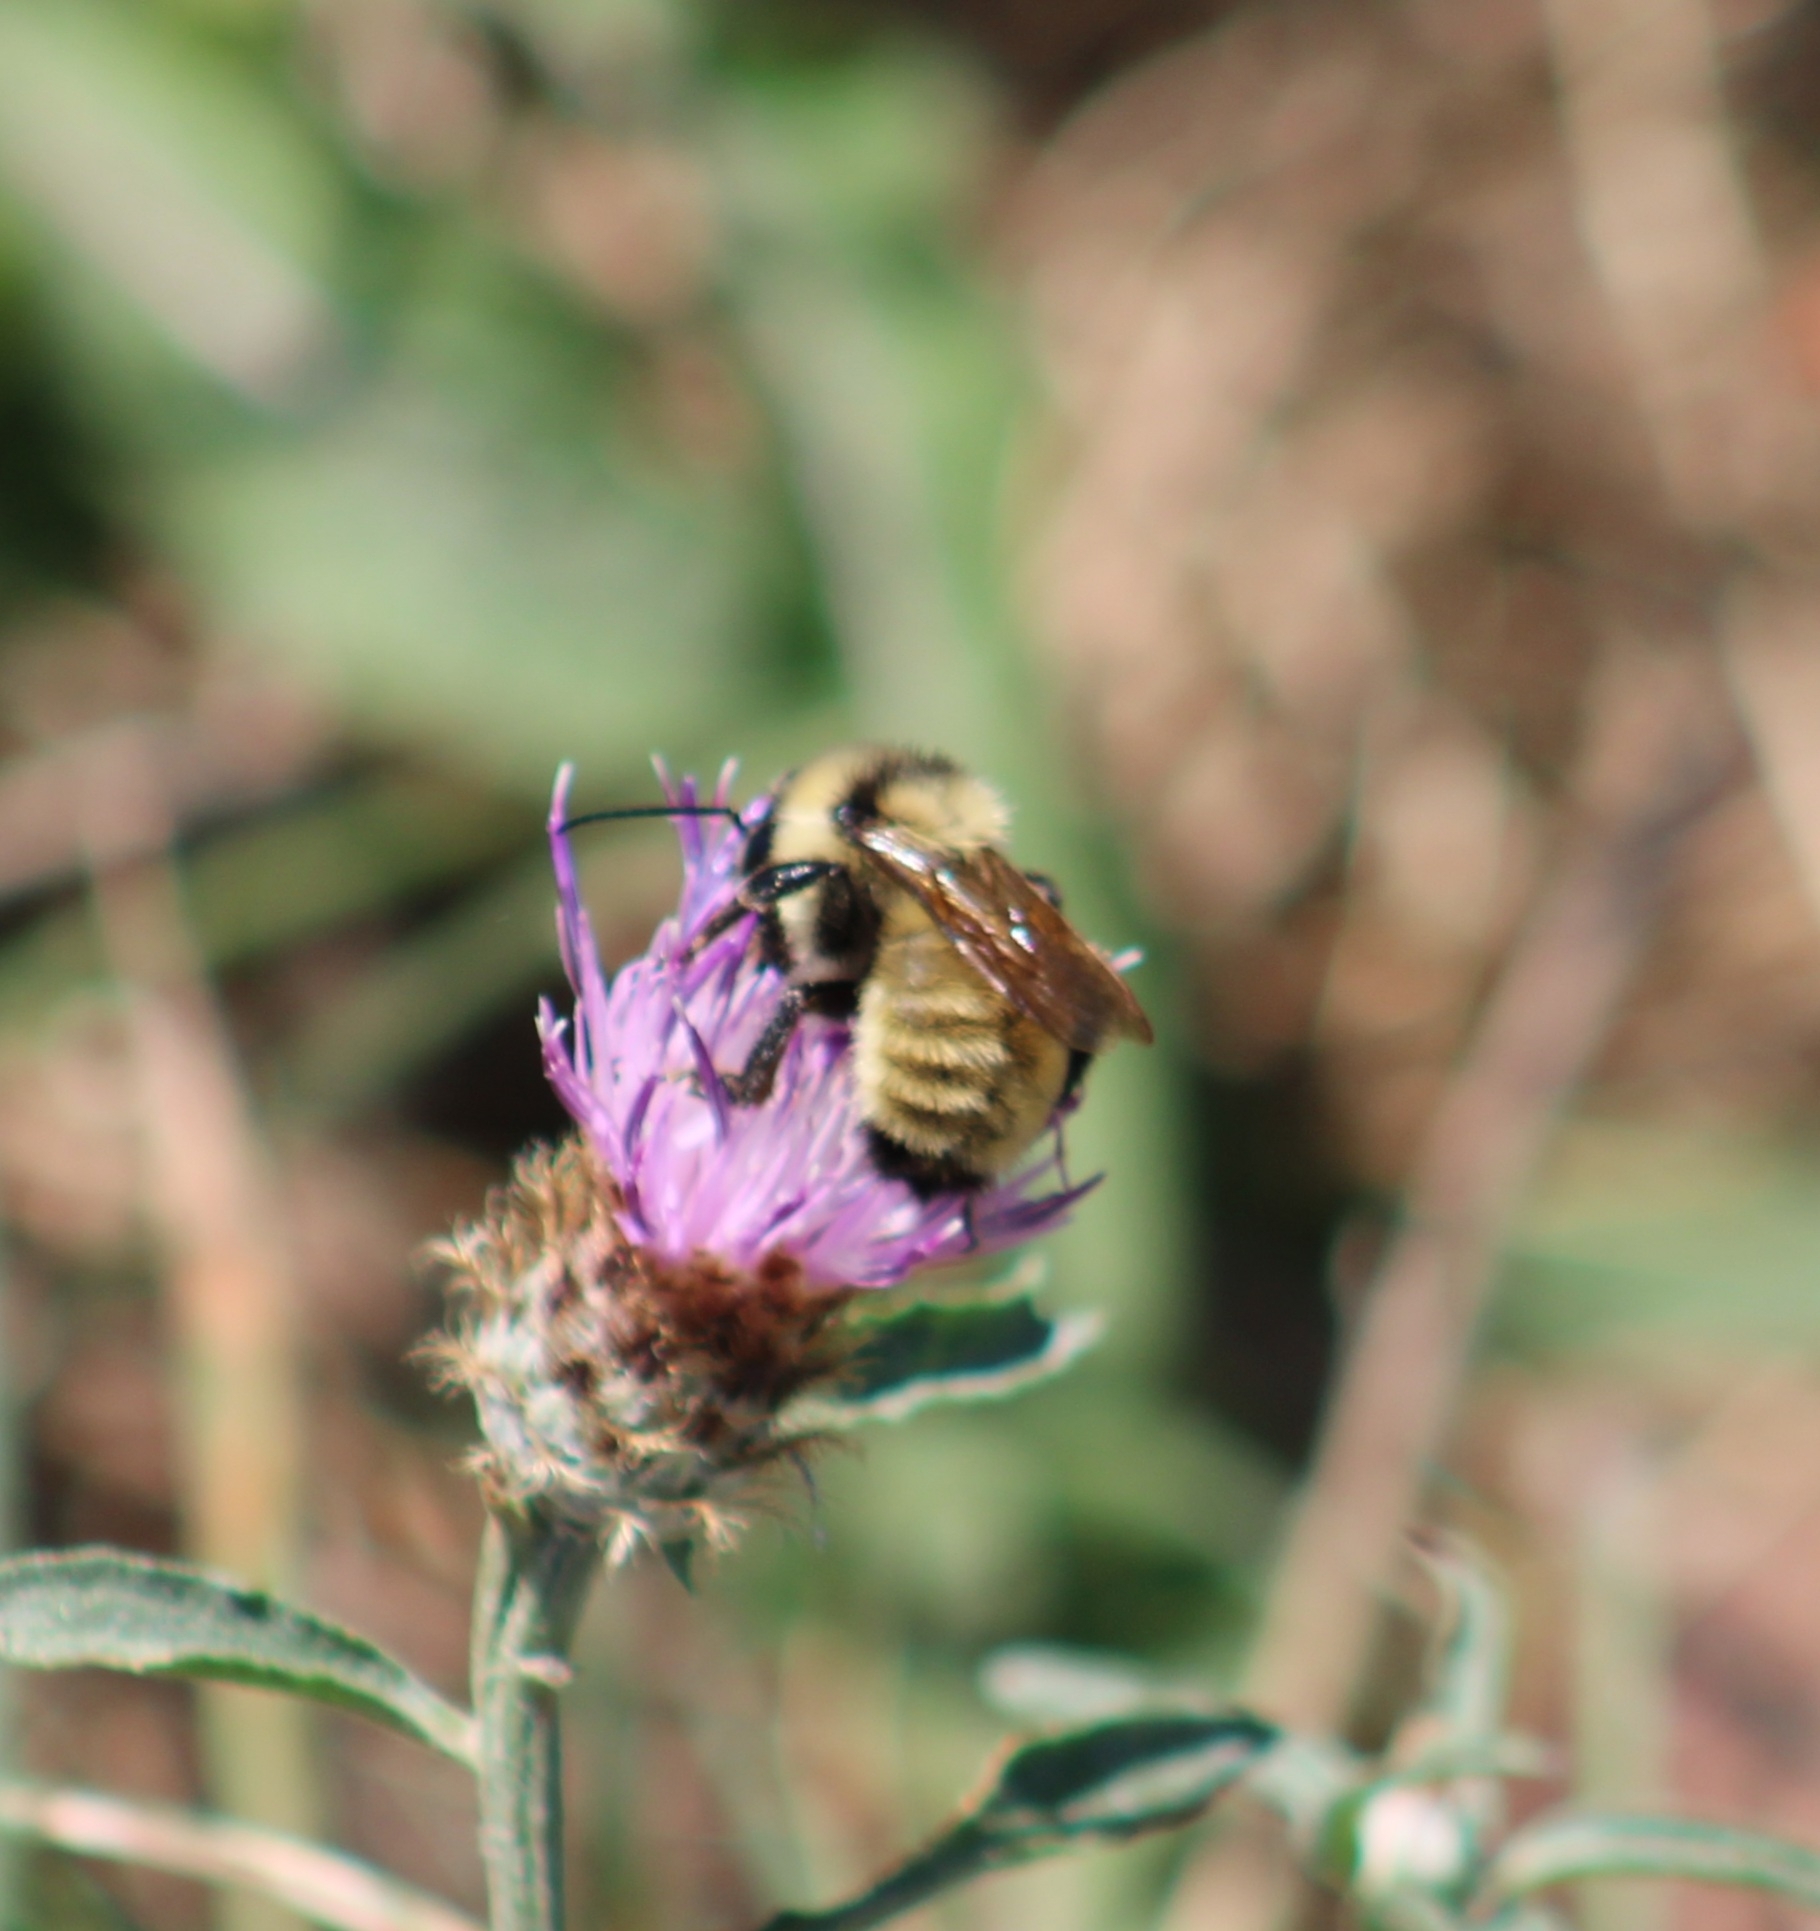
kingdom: Animalia
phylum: Arthropoda
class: Insecta
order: Hymenoptera
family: Apidae
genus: Bombus
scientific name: Bombus fervidus
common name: Yellow bumble bee
